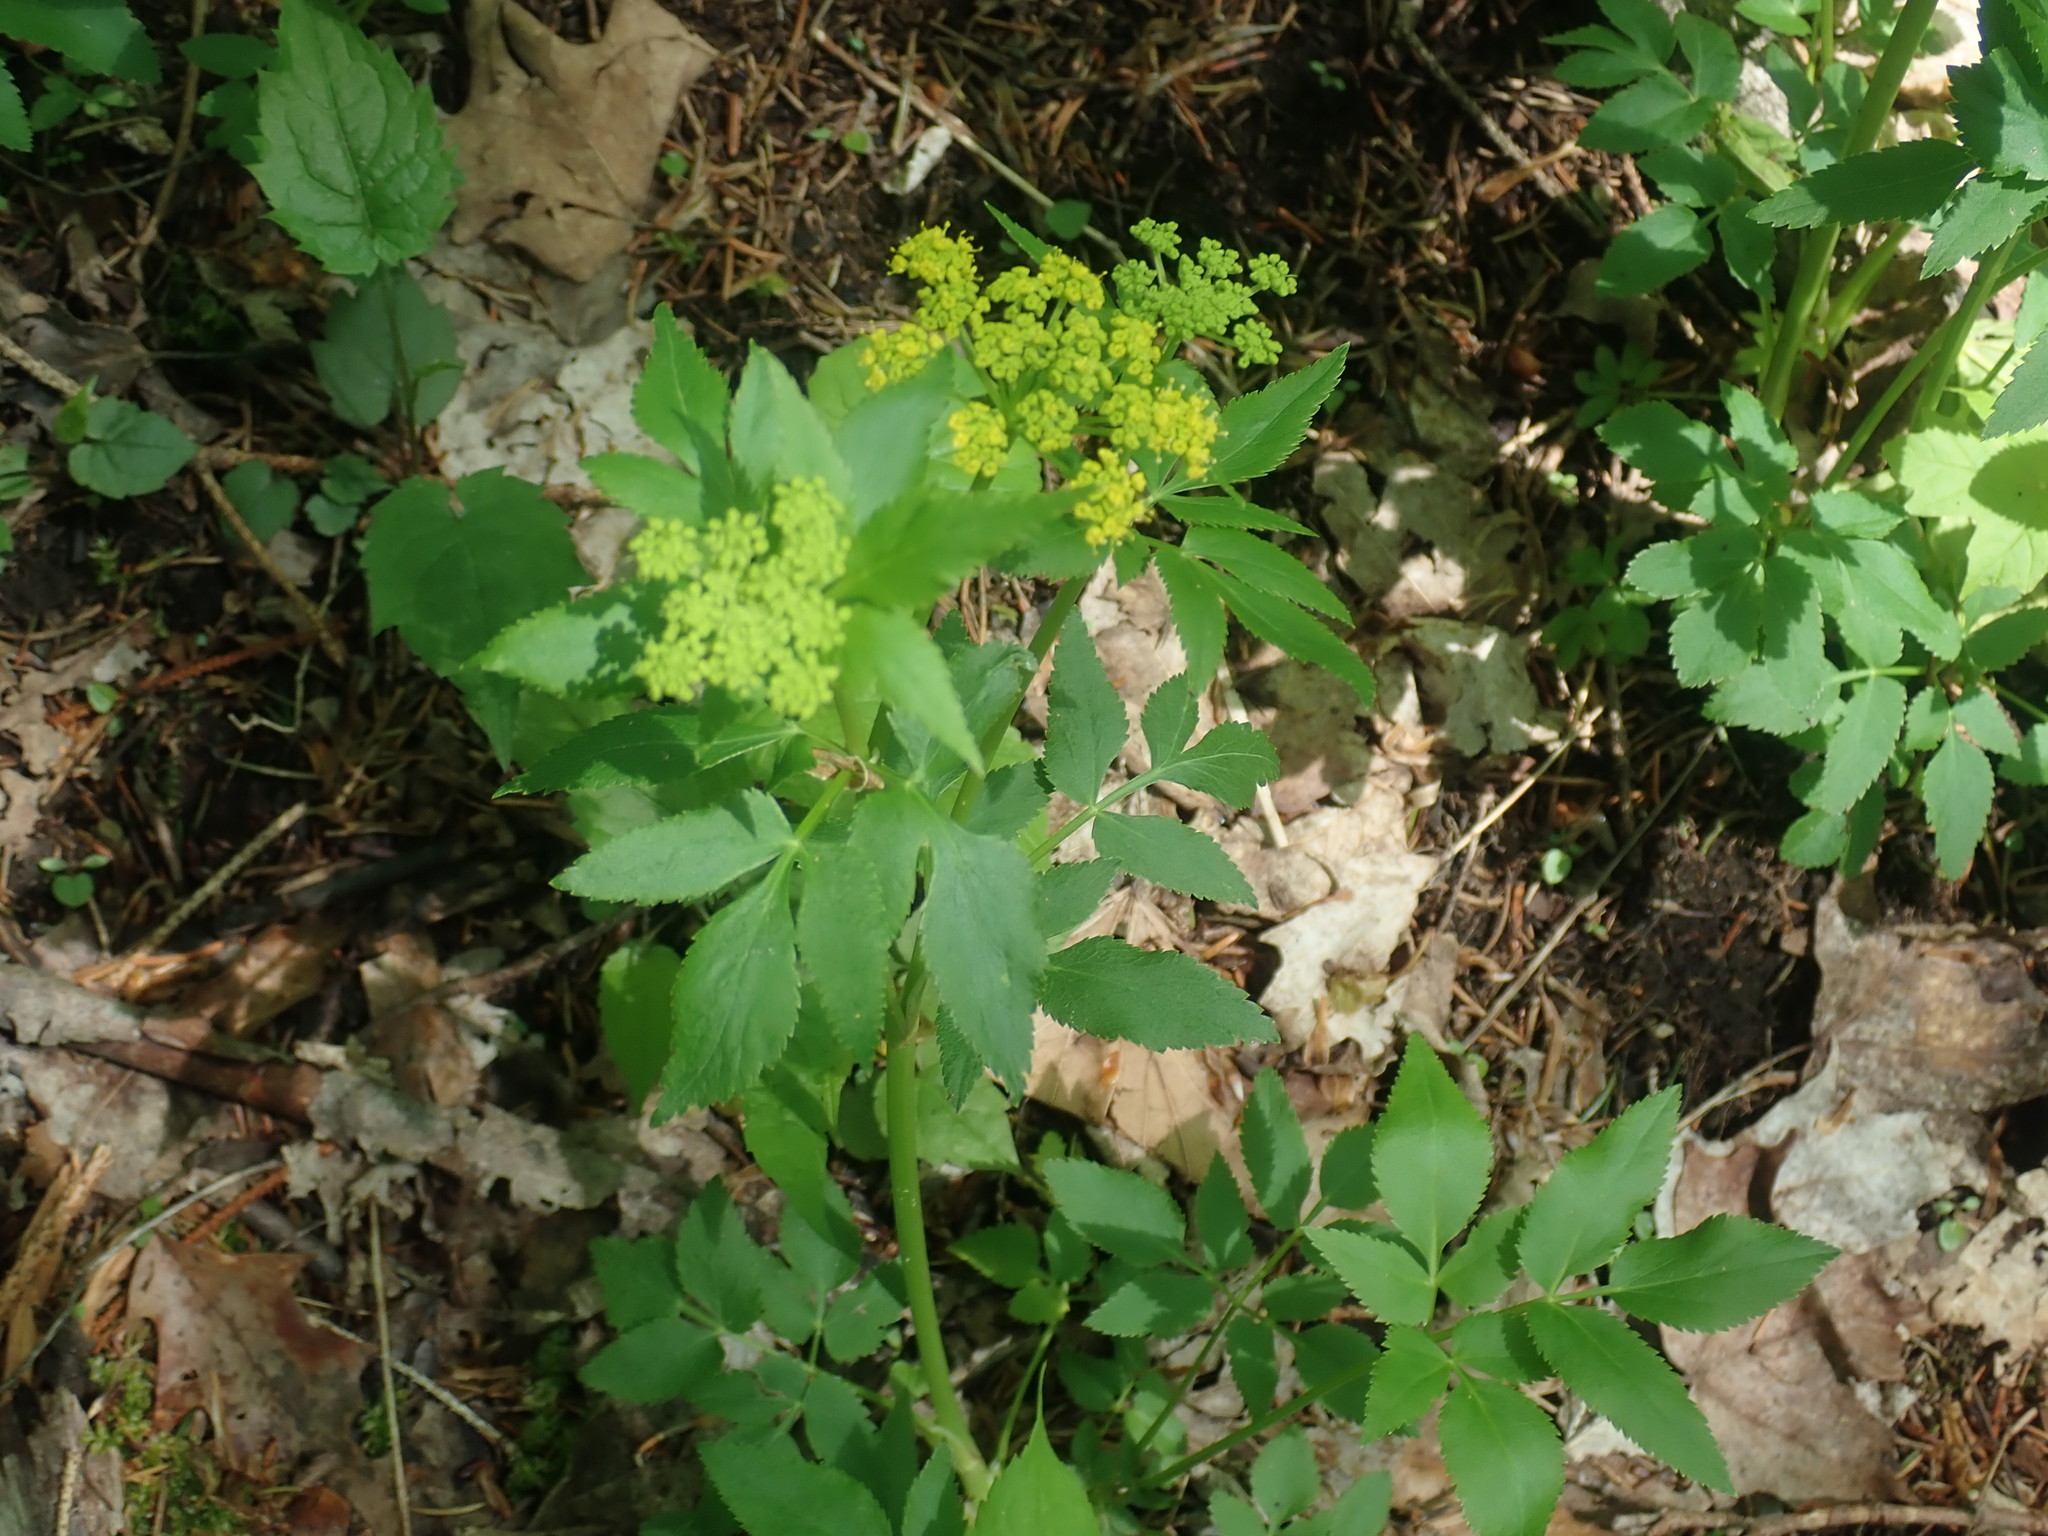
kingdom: Plantae
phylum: Tracheophyta
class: Magnoliopsida
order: Apiales
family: Apiaceae
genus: Zizia
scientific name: Zizia aurea
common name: Golden alexanders
